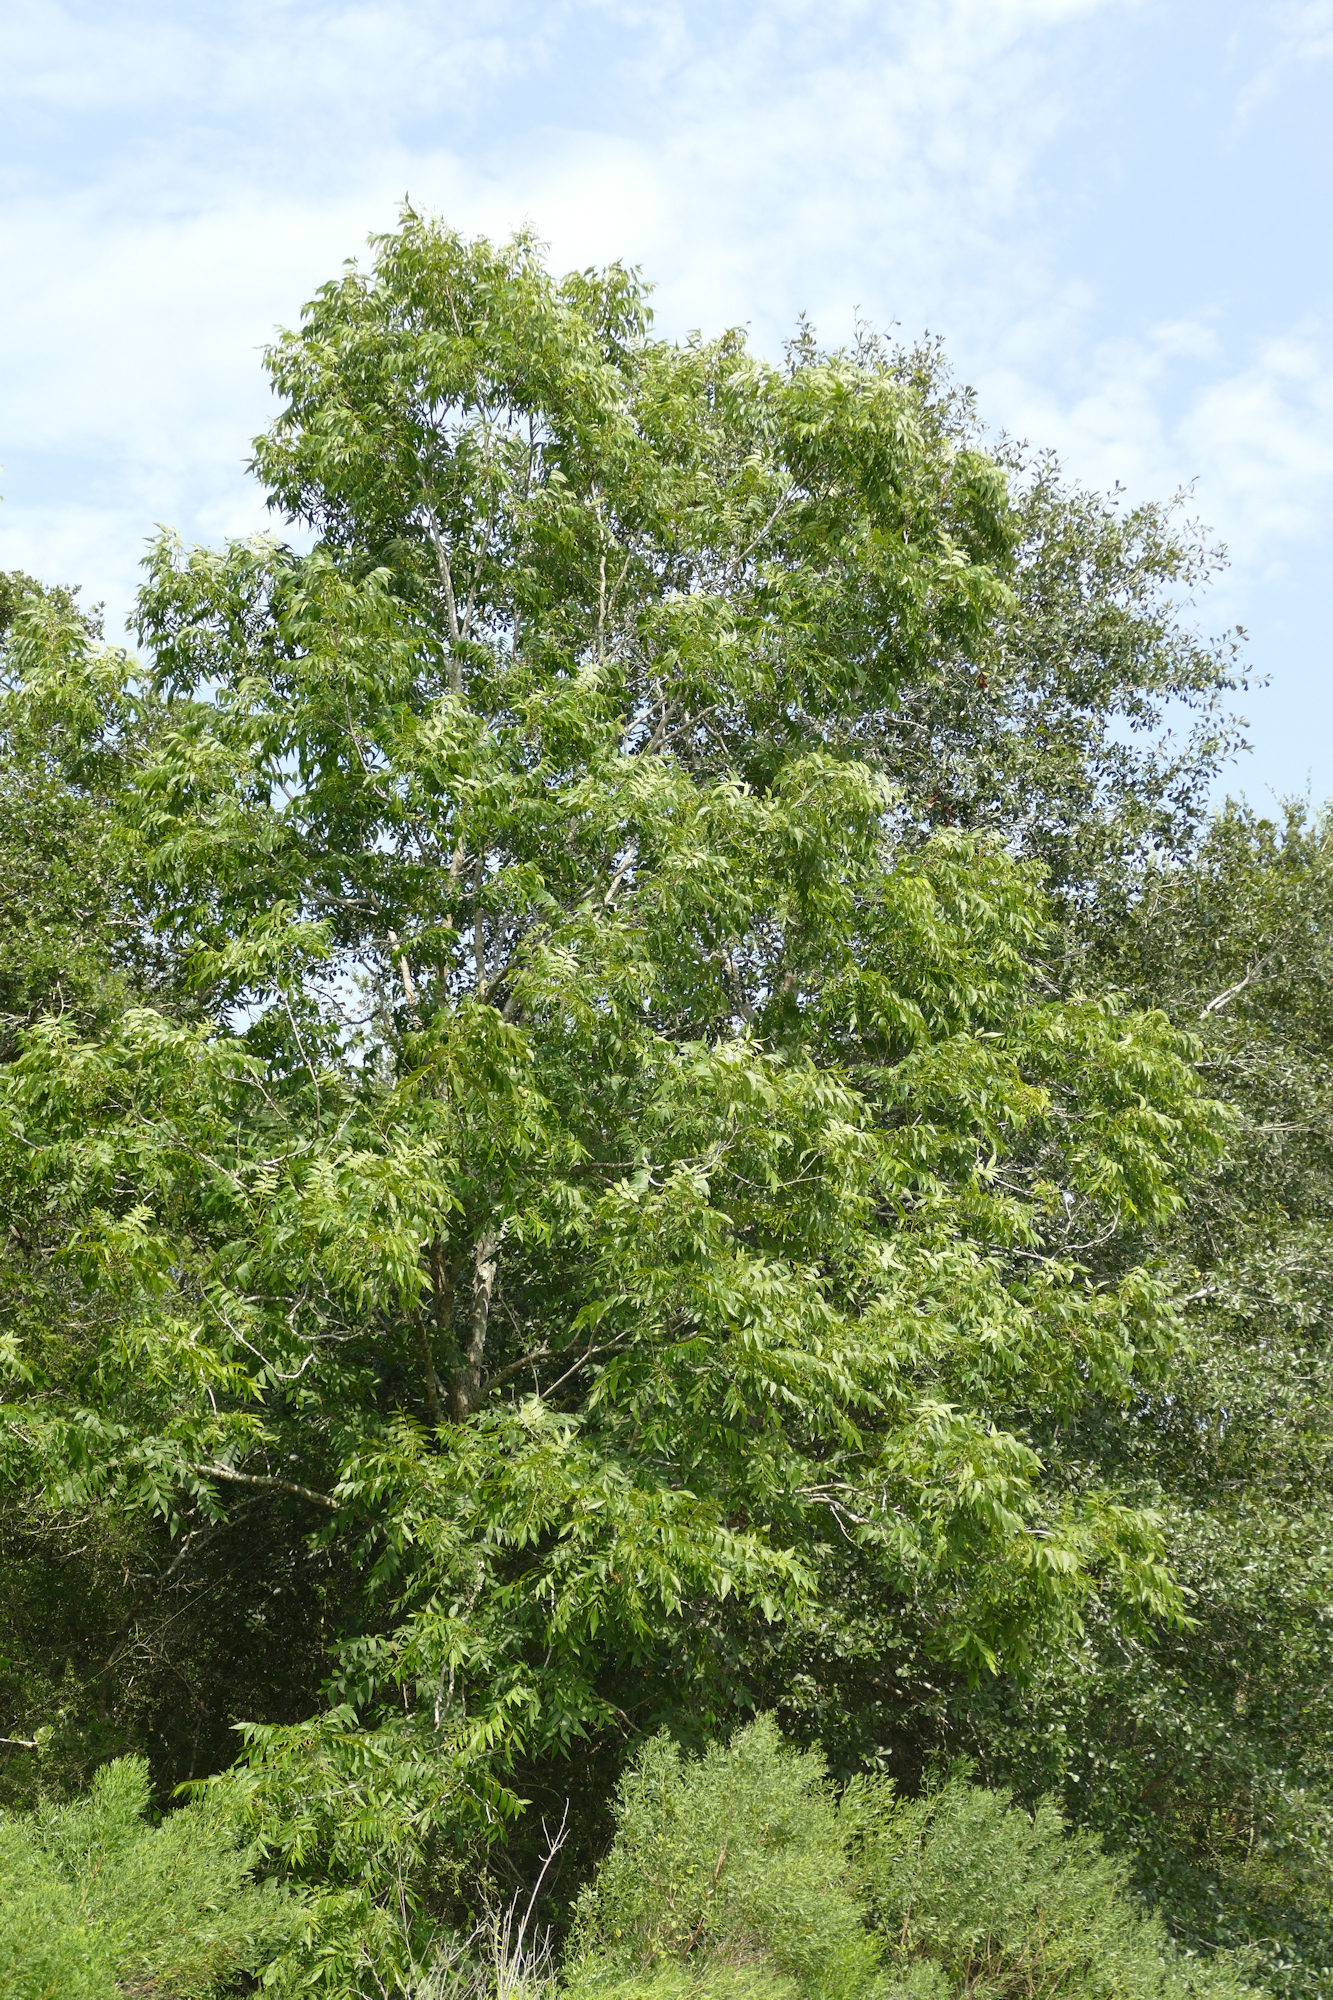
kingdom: Plantae
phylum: Tracheophyta
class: Magnoliopsida
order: Fagales
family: Juglandaceae
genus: Carya
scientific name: Carya illinoinensis
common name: Pecan
